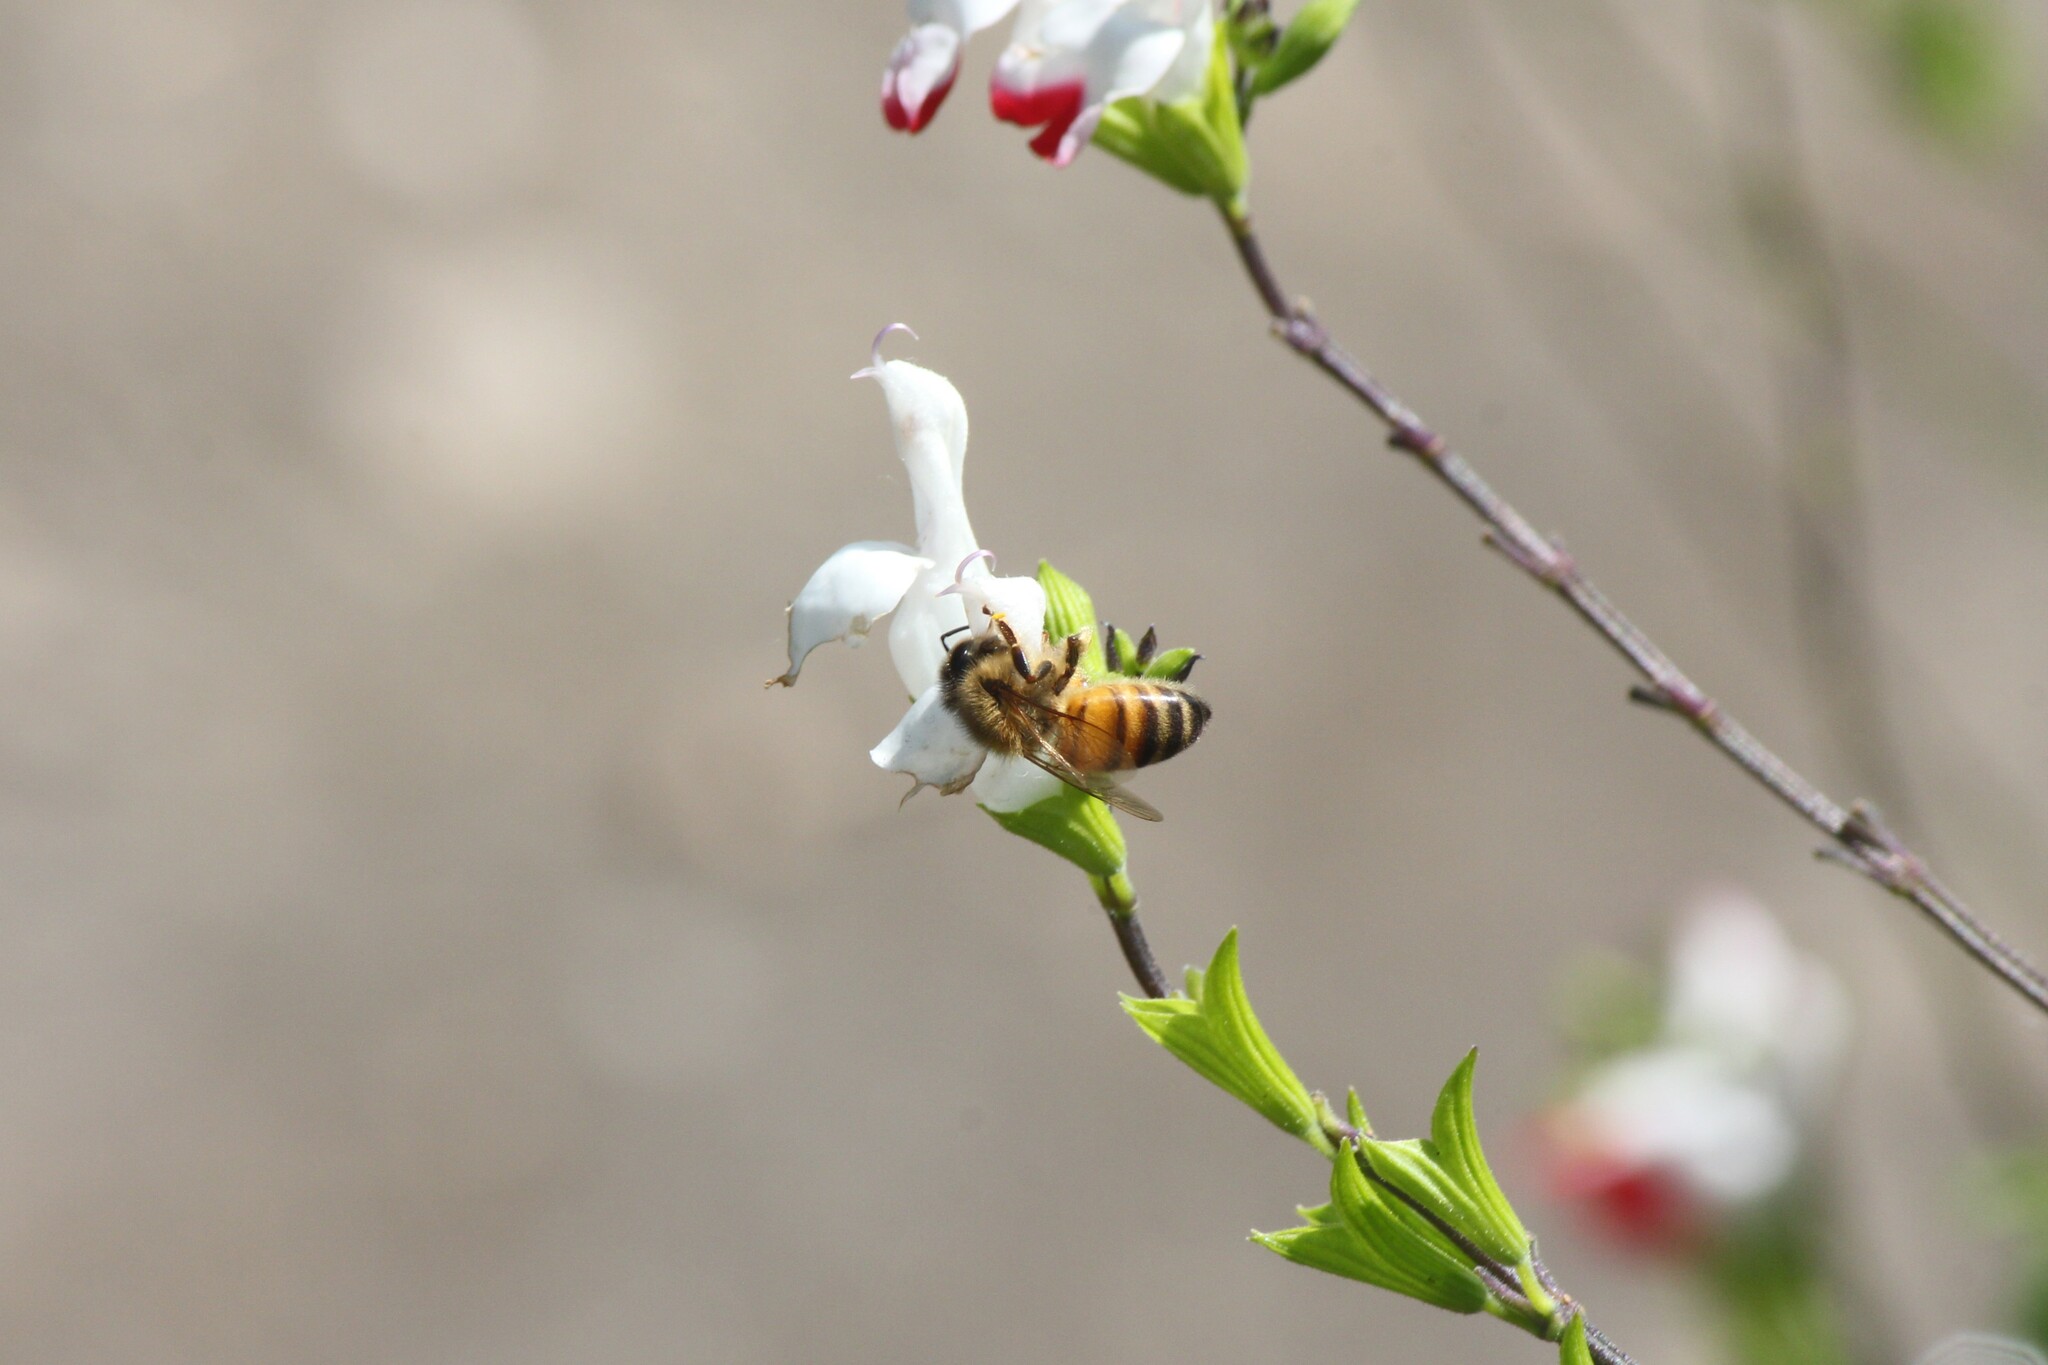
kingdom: Animalia
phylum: Arthropoda
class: Insecta
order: Hymenoptera
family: Apidae
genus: Apis
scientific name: Apis mellifera
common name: Honey bee
